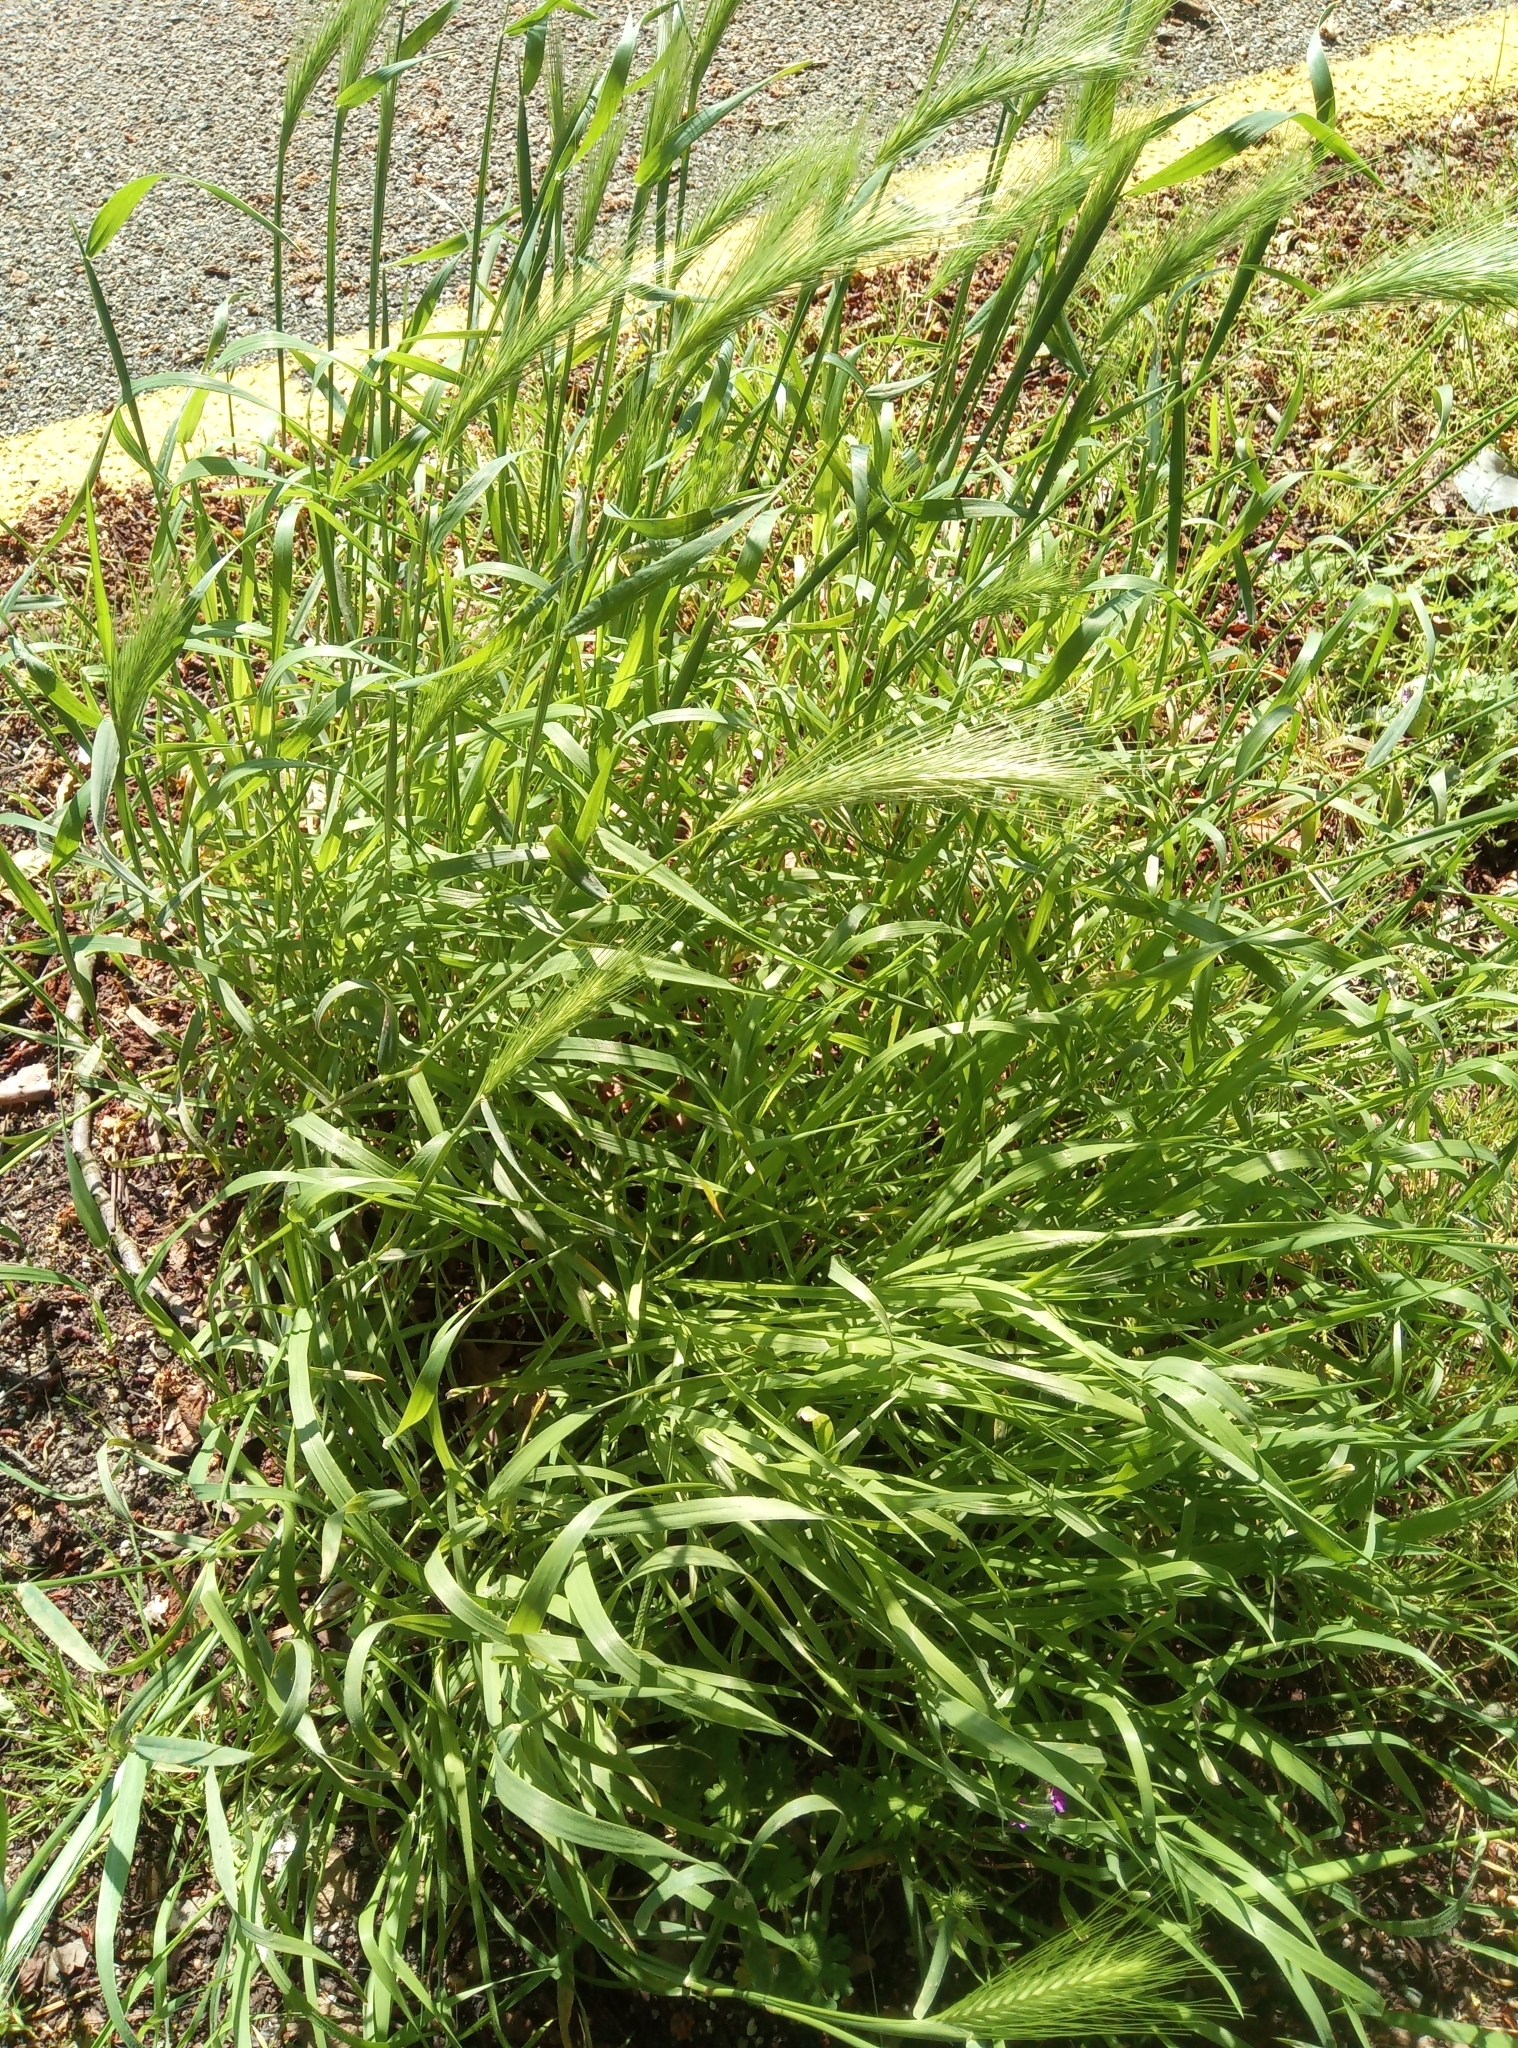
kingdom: Plantae
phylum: Tracheophyta
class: Liliopsida
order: Poales
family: Poaceae
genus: Hordeum
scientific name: Hordeum murinum
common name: Wall barley
